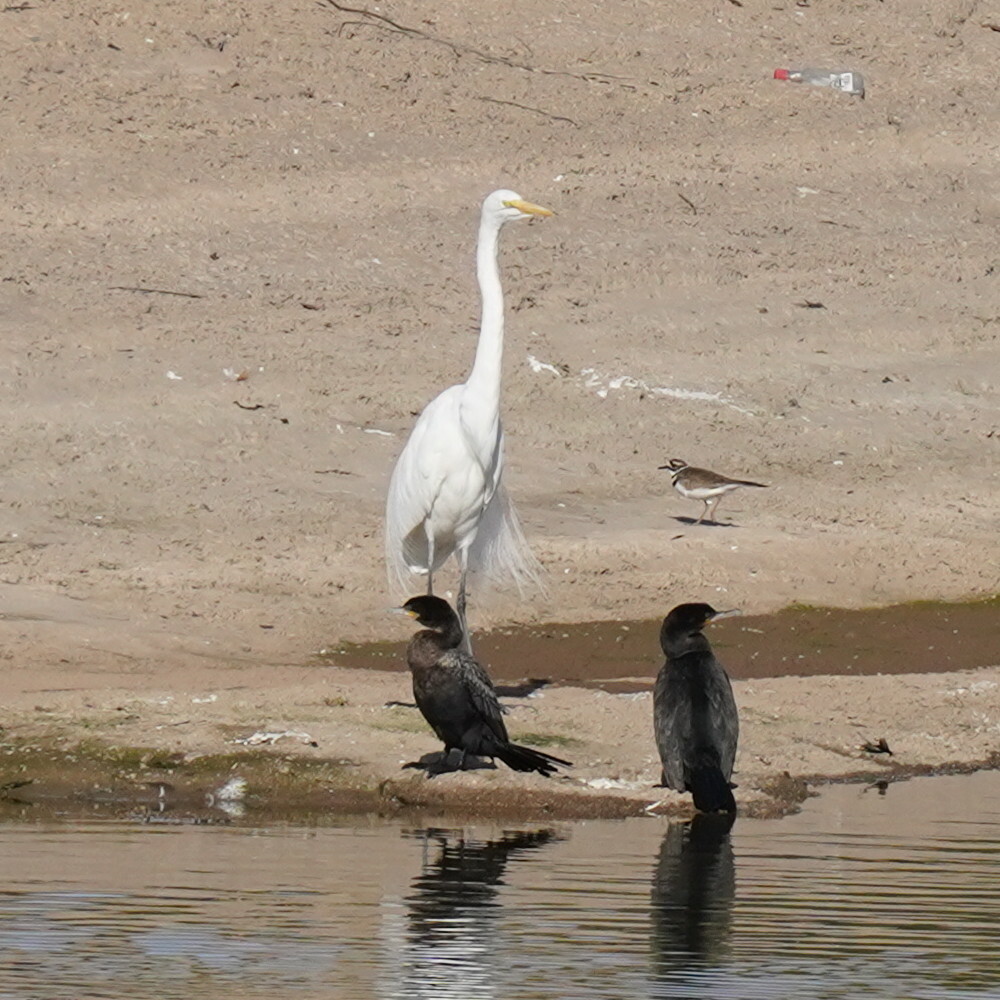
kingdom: Animalia
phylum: Chordata
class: Aves
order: Charadriiformes
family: Charadriidae
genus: Charadrius
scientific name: Charadrius vociferus
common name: Killdeer
